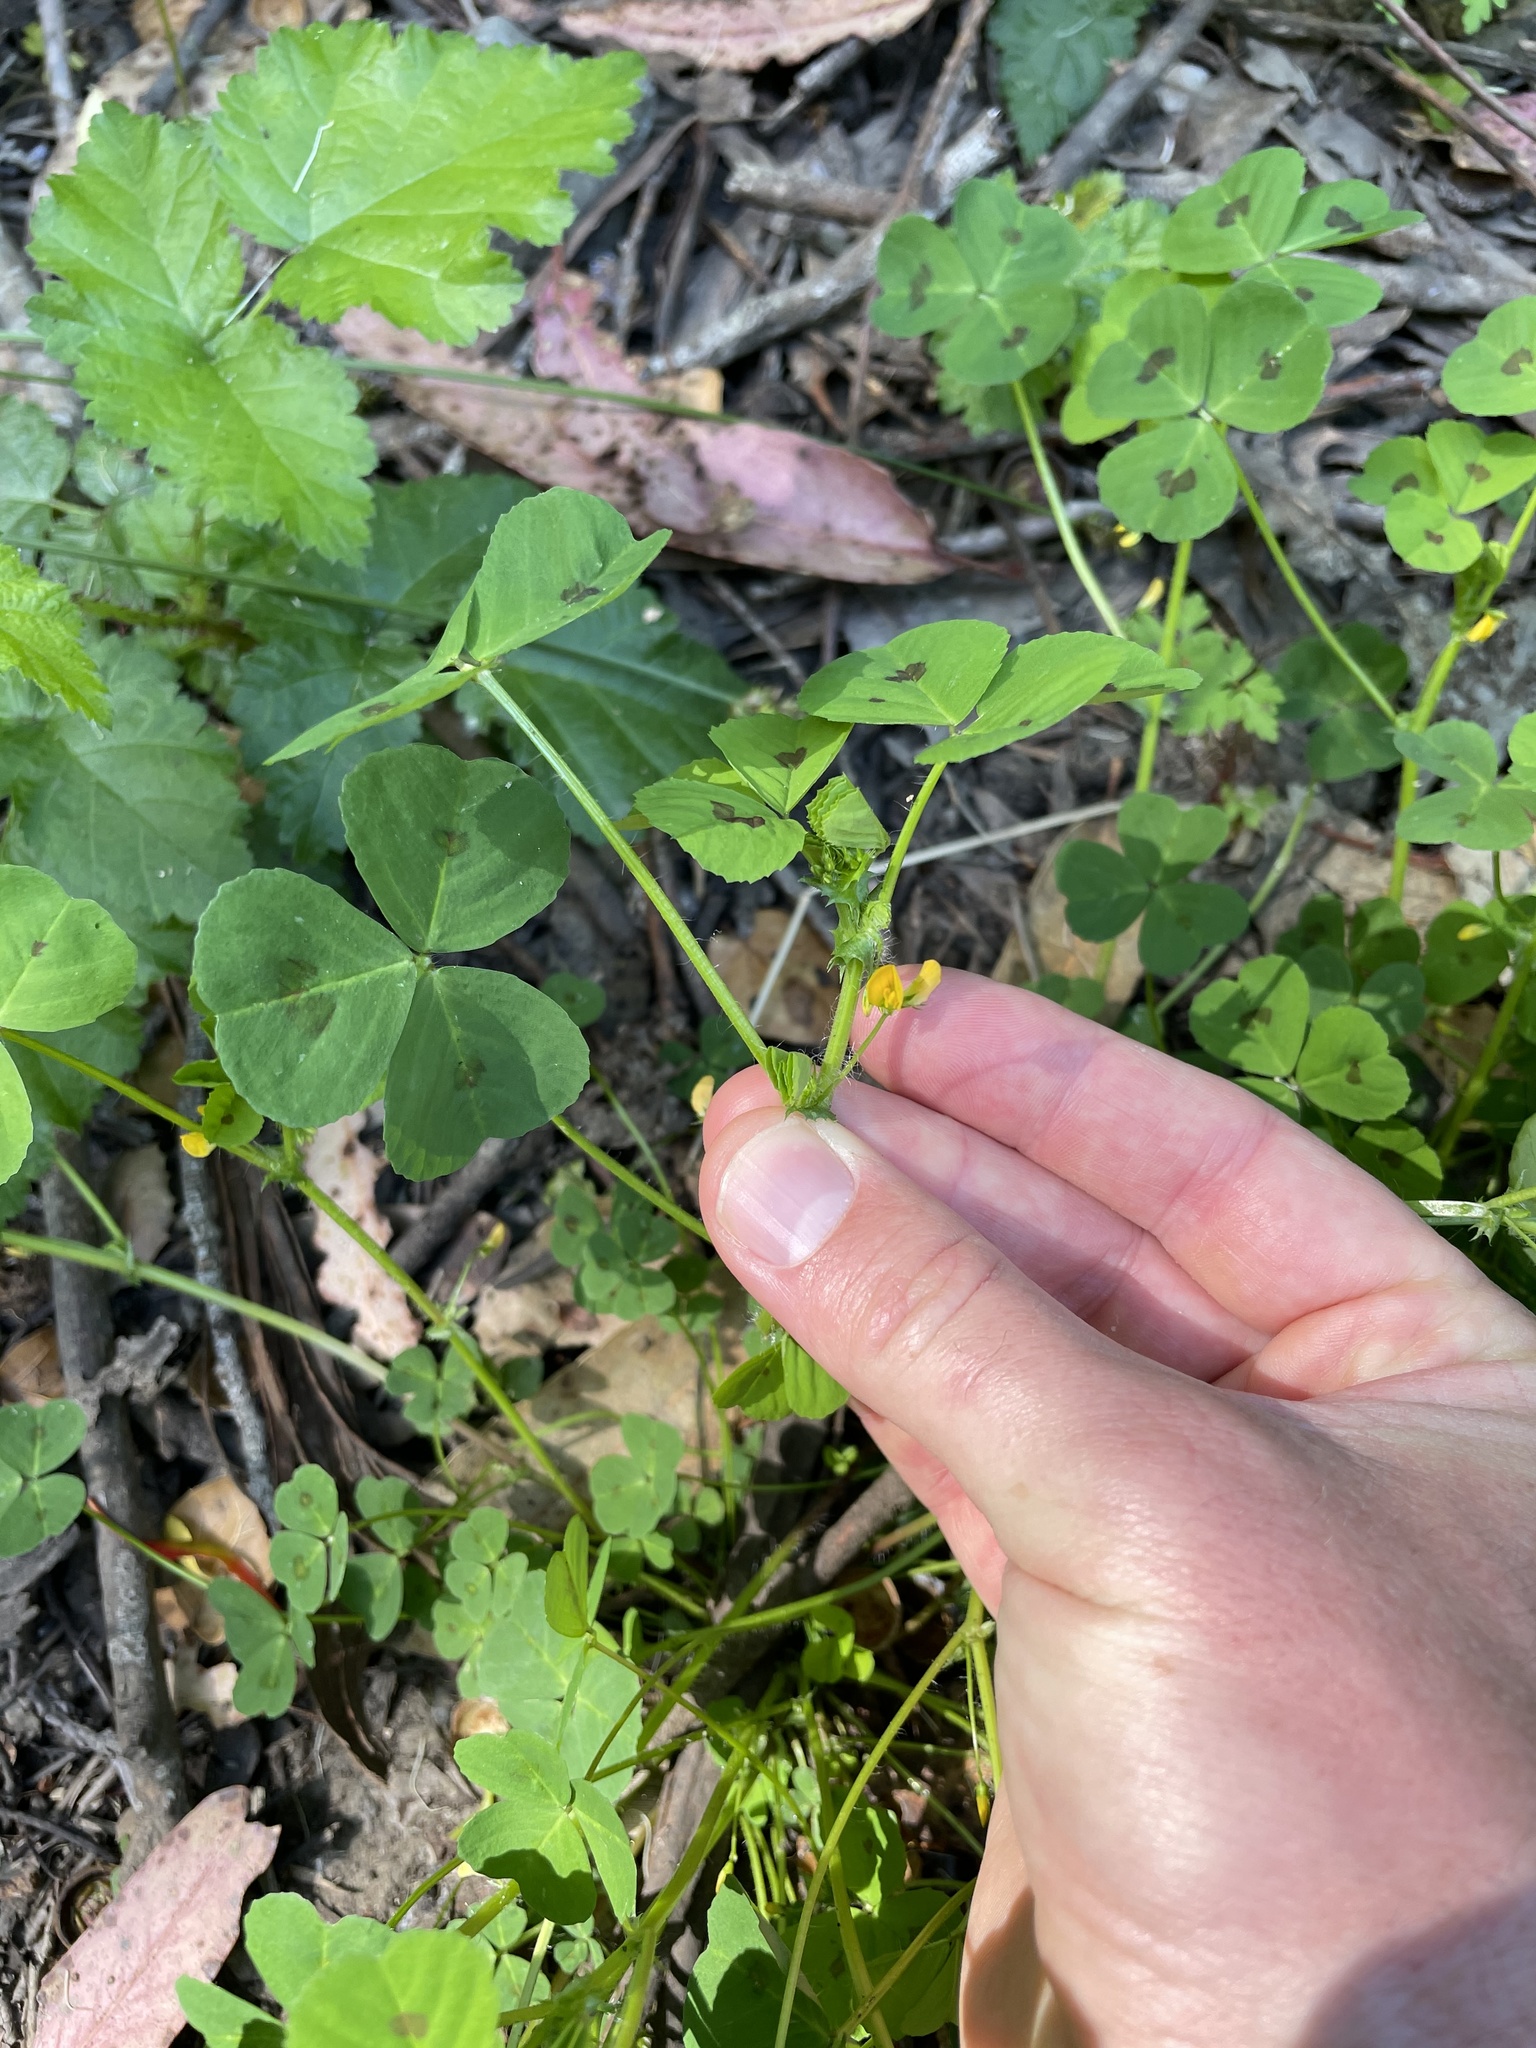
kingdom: Plantae
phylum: Tracheophyta
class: Magnoliopsida
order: Fabales
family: Fabaceae
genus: Medicago
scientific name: Medicago arabica
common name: Spotted medick
